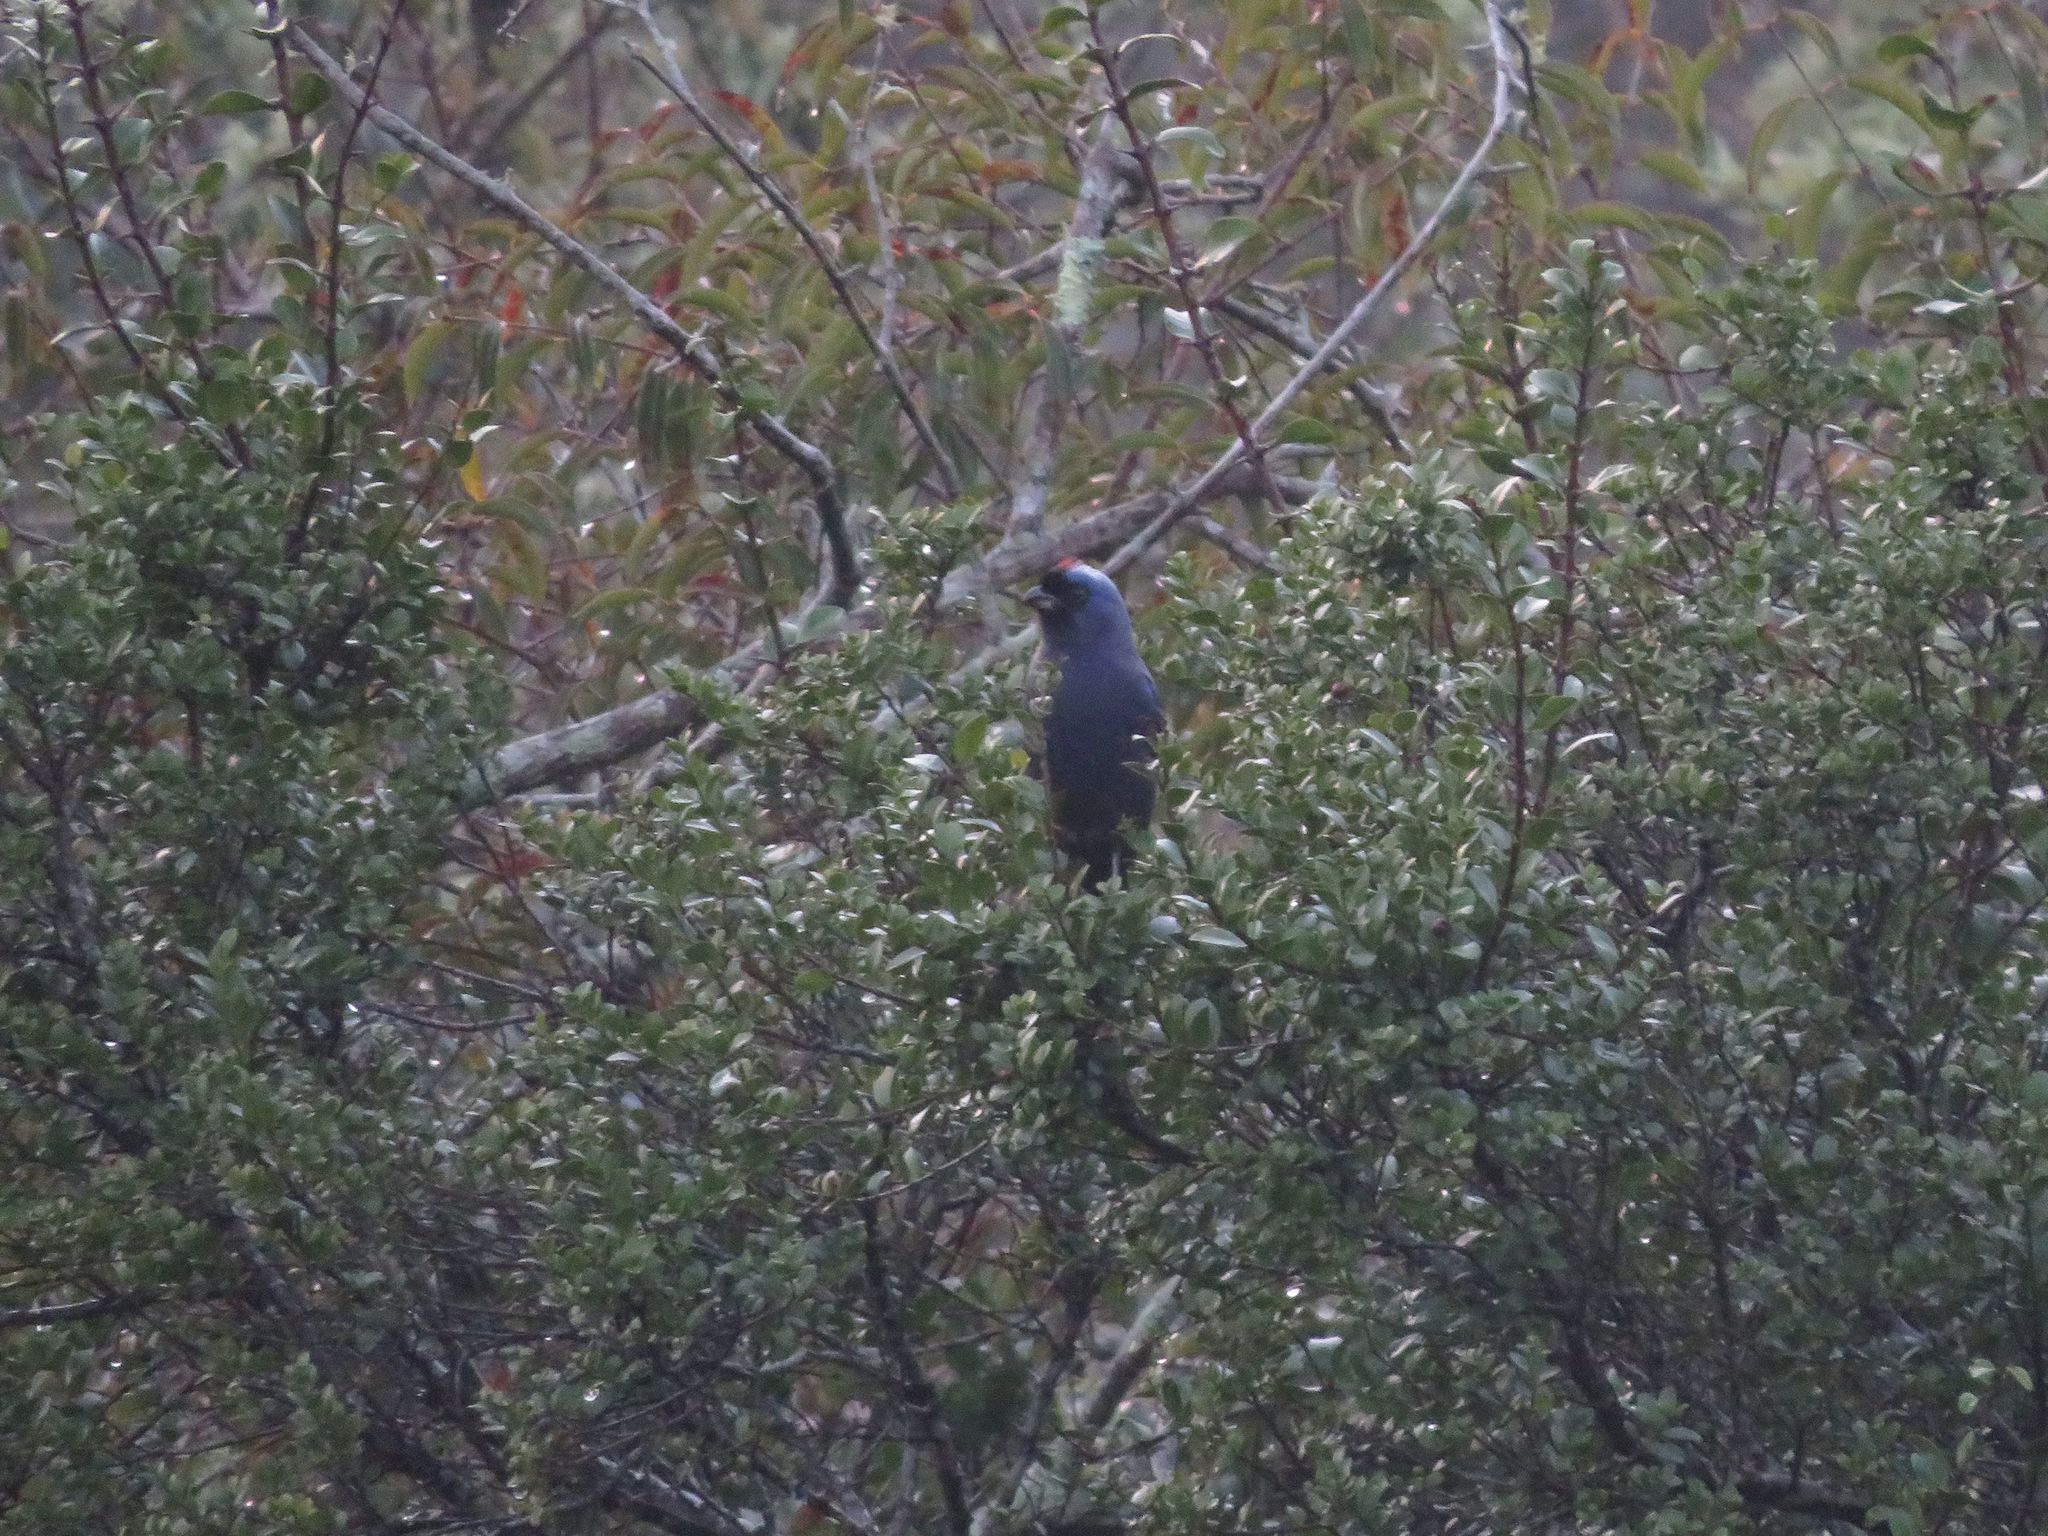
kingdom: Animalia
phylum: Chordata
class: Aves
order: Passeriformes
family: Thraupidae
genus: Stephanophorus
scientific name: Stephanophorus diadematus
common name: Diademed tanager
